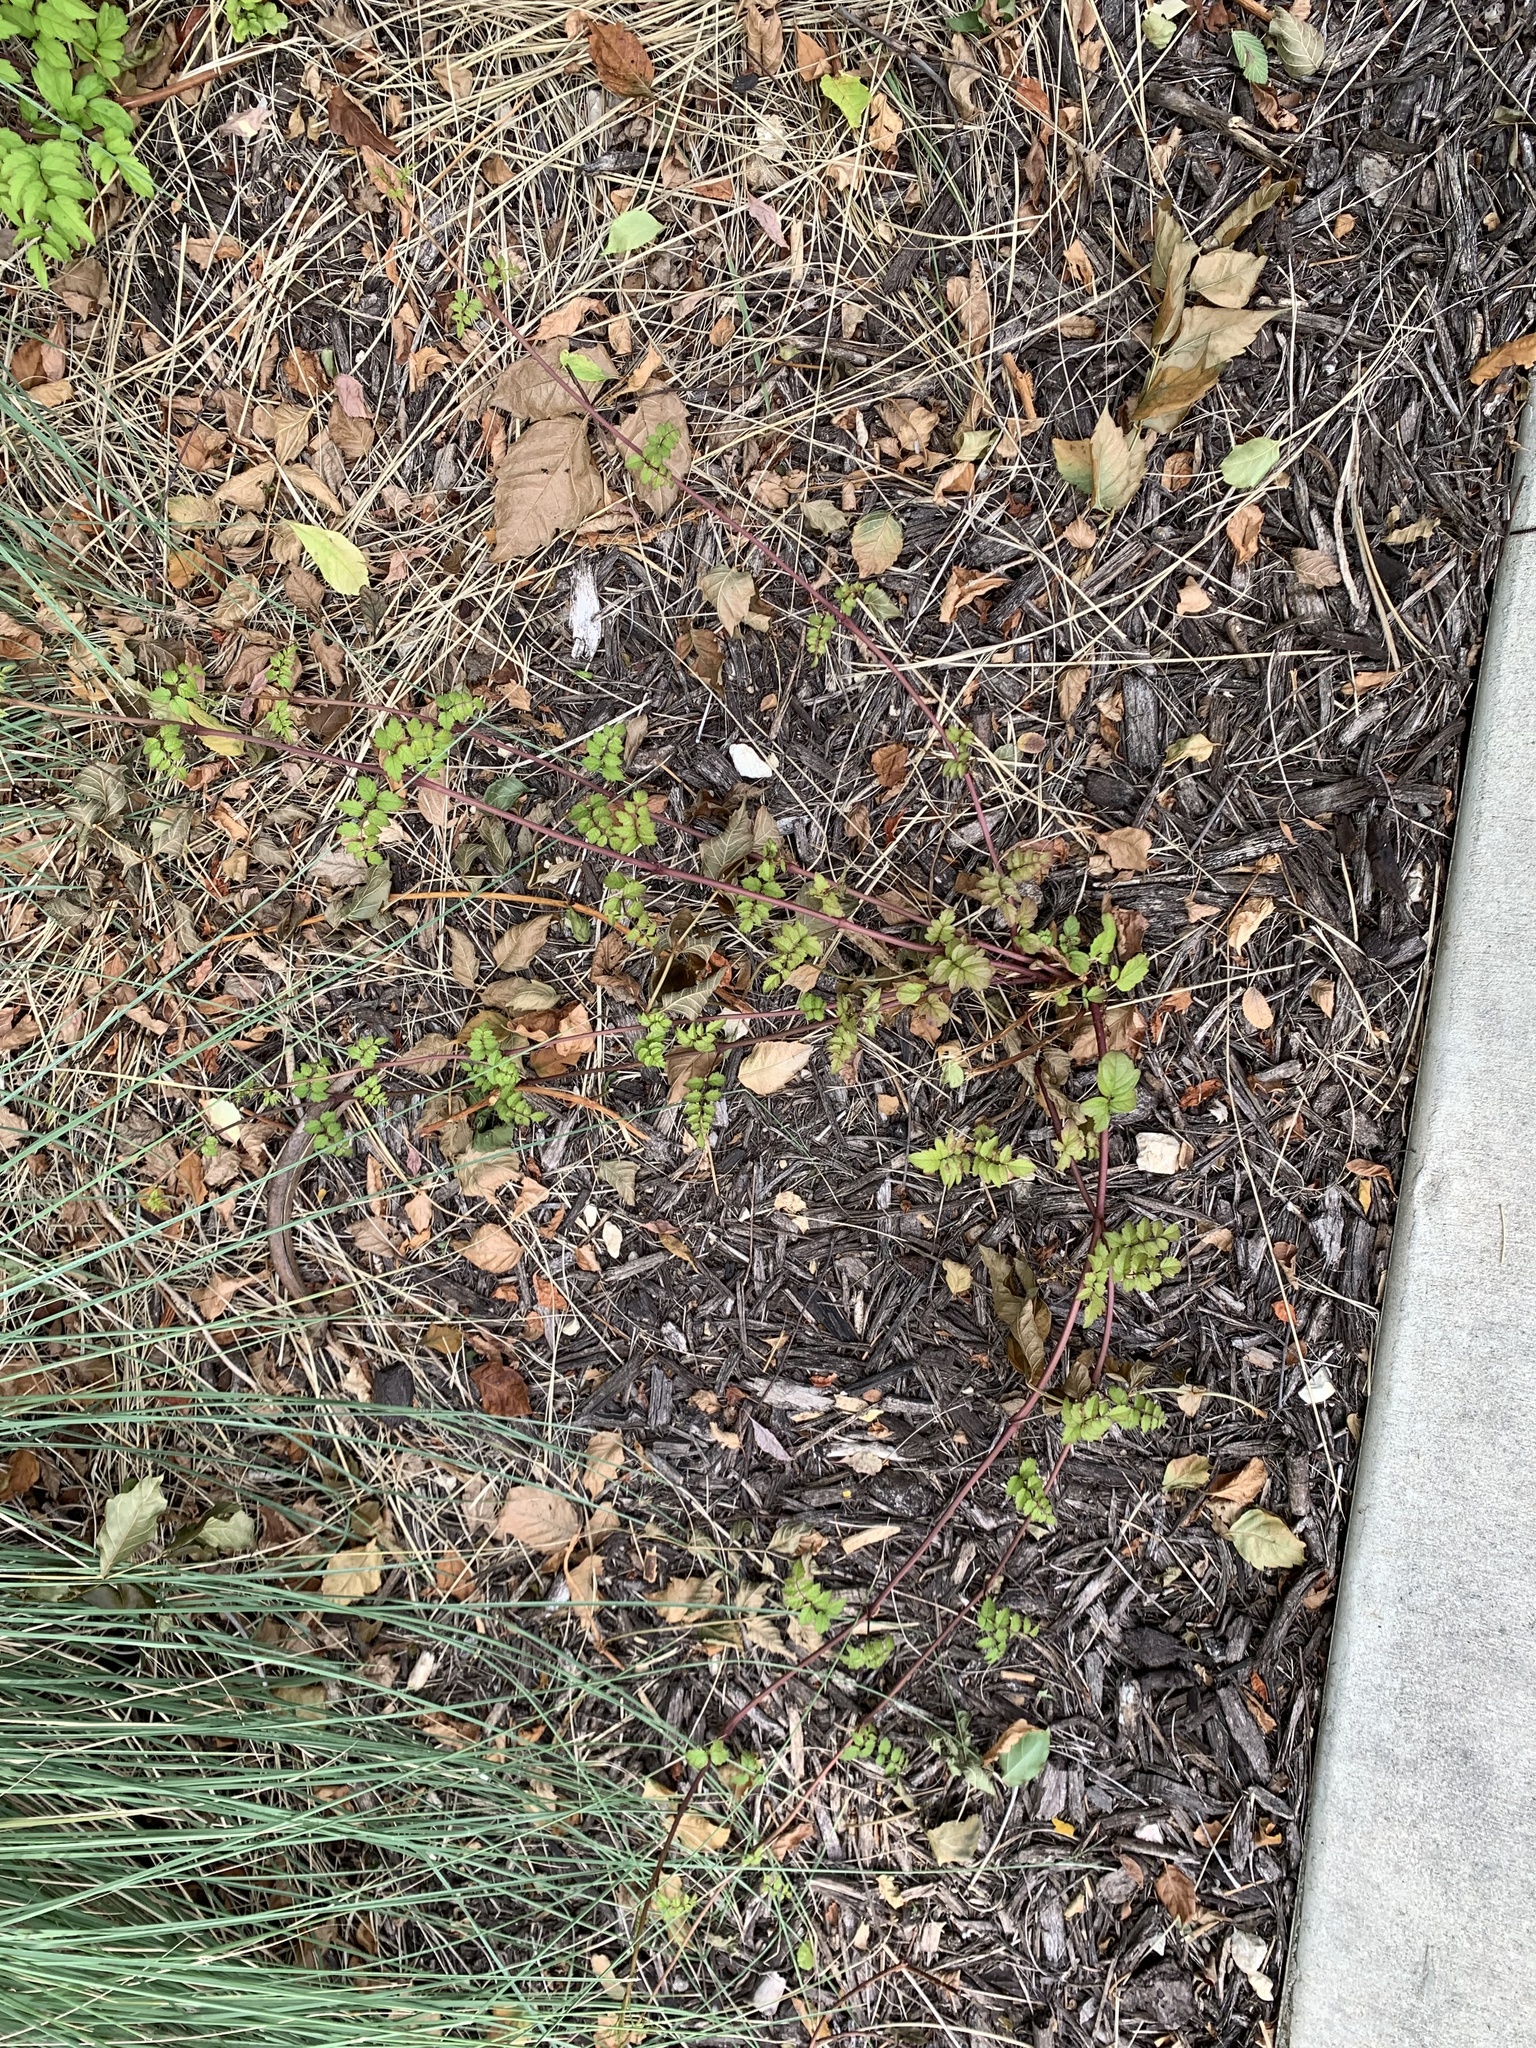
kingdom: Plantae
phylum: Tracheophyta
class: Magnoliopsida
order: Lamiales
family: Bignoniaceae
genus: Campsis
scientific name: Campsis radicans
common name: Trumpet-creeper
